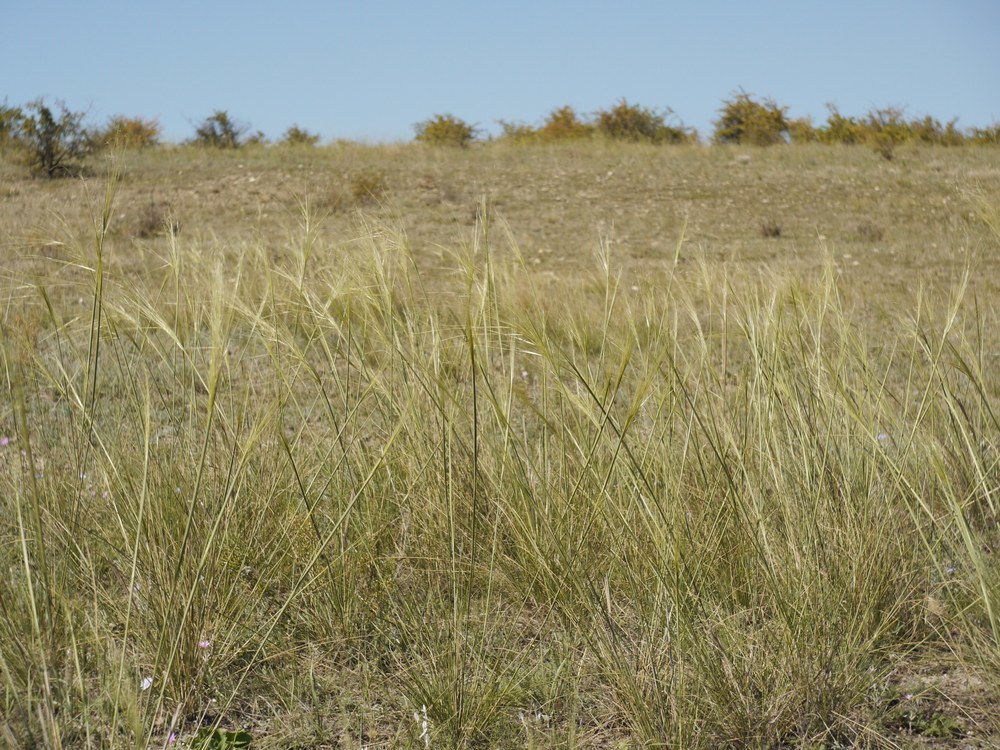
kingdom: Plantae
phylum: Tracheophyta
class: Liliopsida
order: Poales
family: Poaceae
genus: Stipa
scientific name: Stipa capillata
